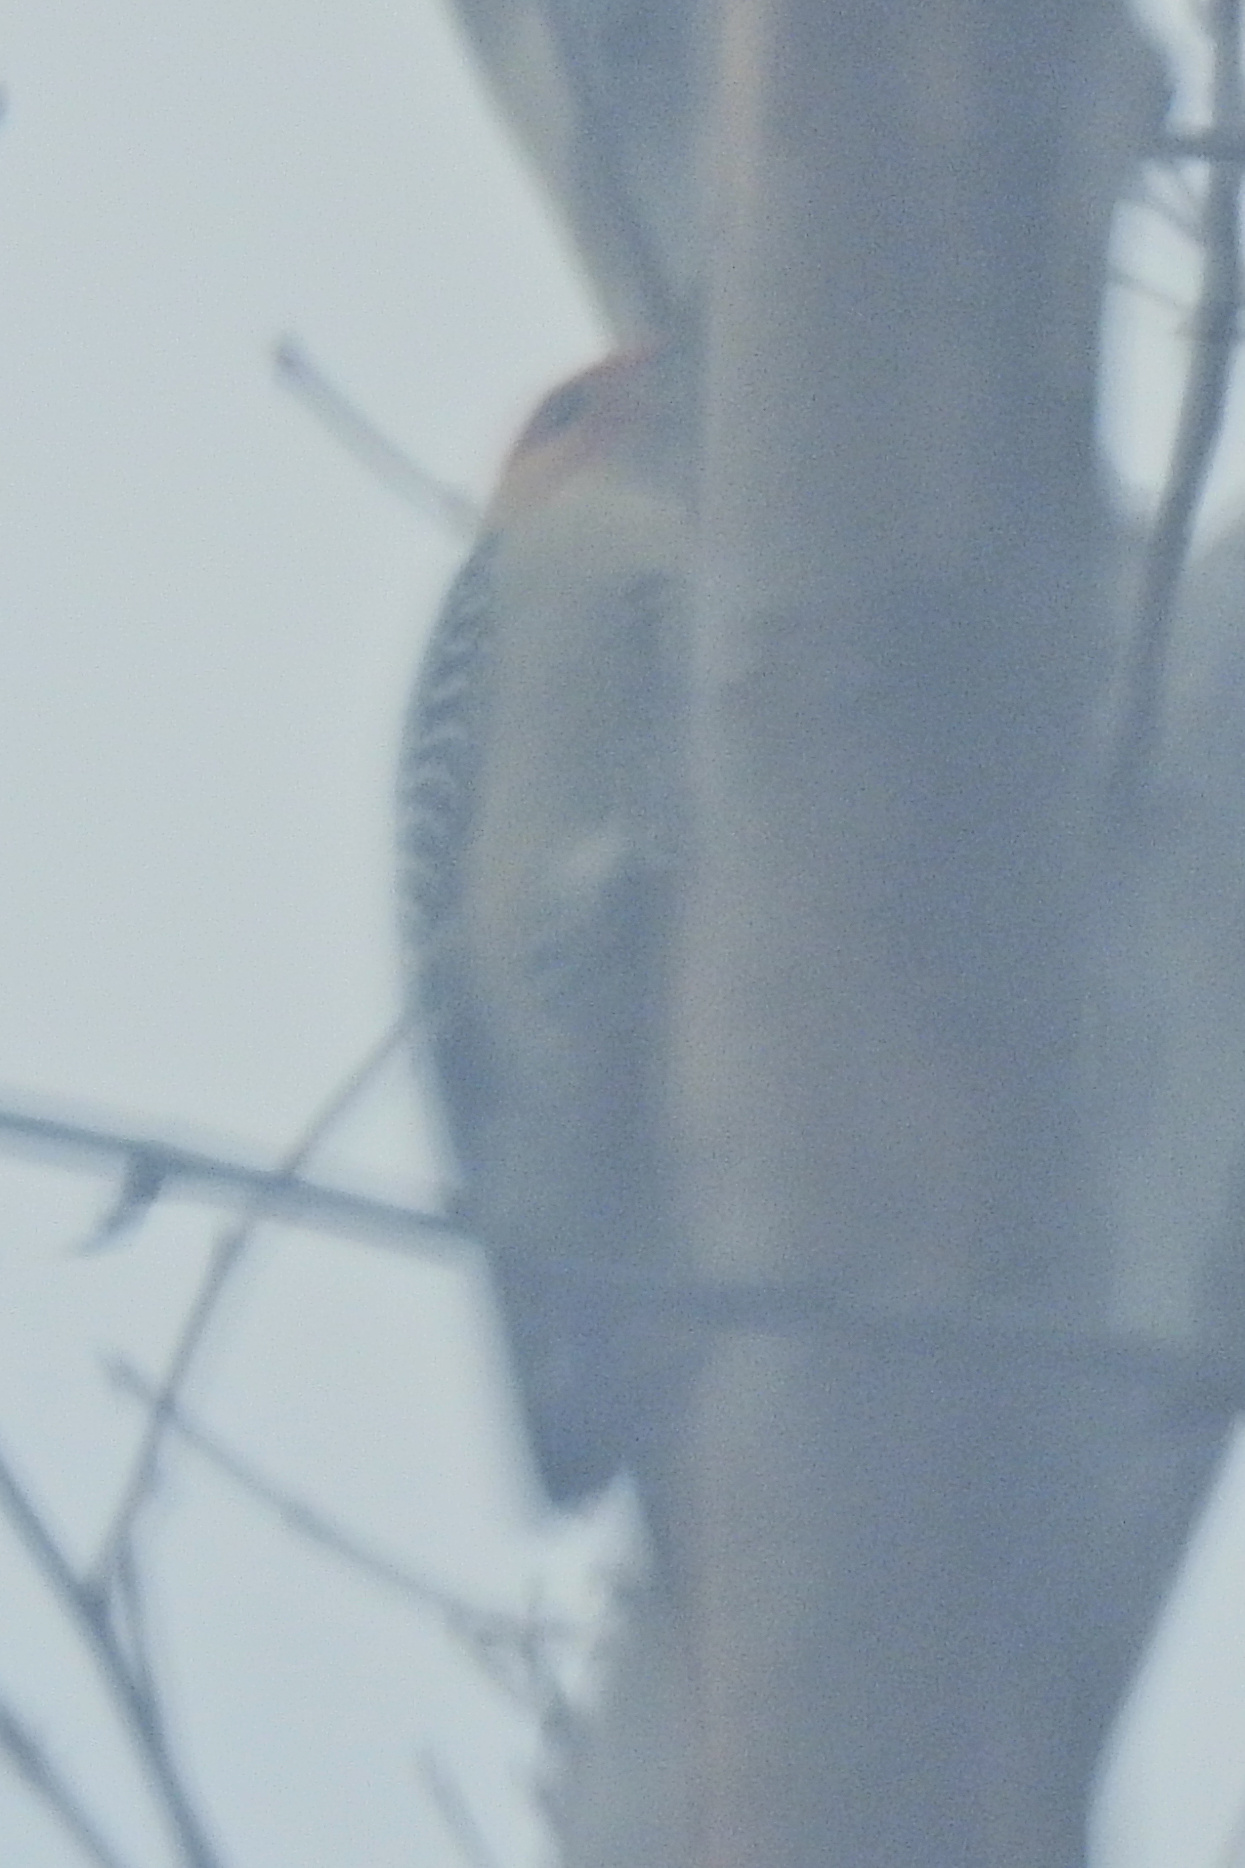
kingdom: Animalia
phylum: Chordata
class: Aves
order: Piciformes
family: Picidae
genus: Melanerpes
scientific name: Melanerpes carolinus
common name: Red-bellied woodpecker
